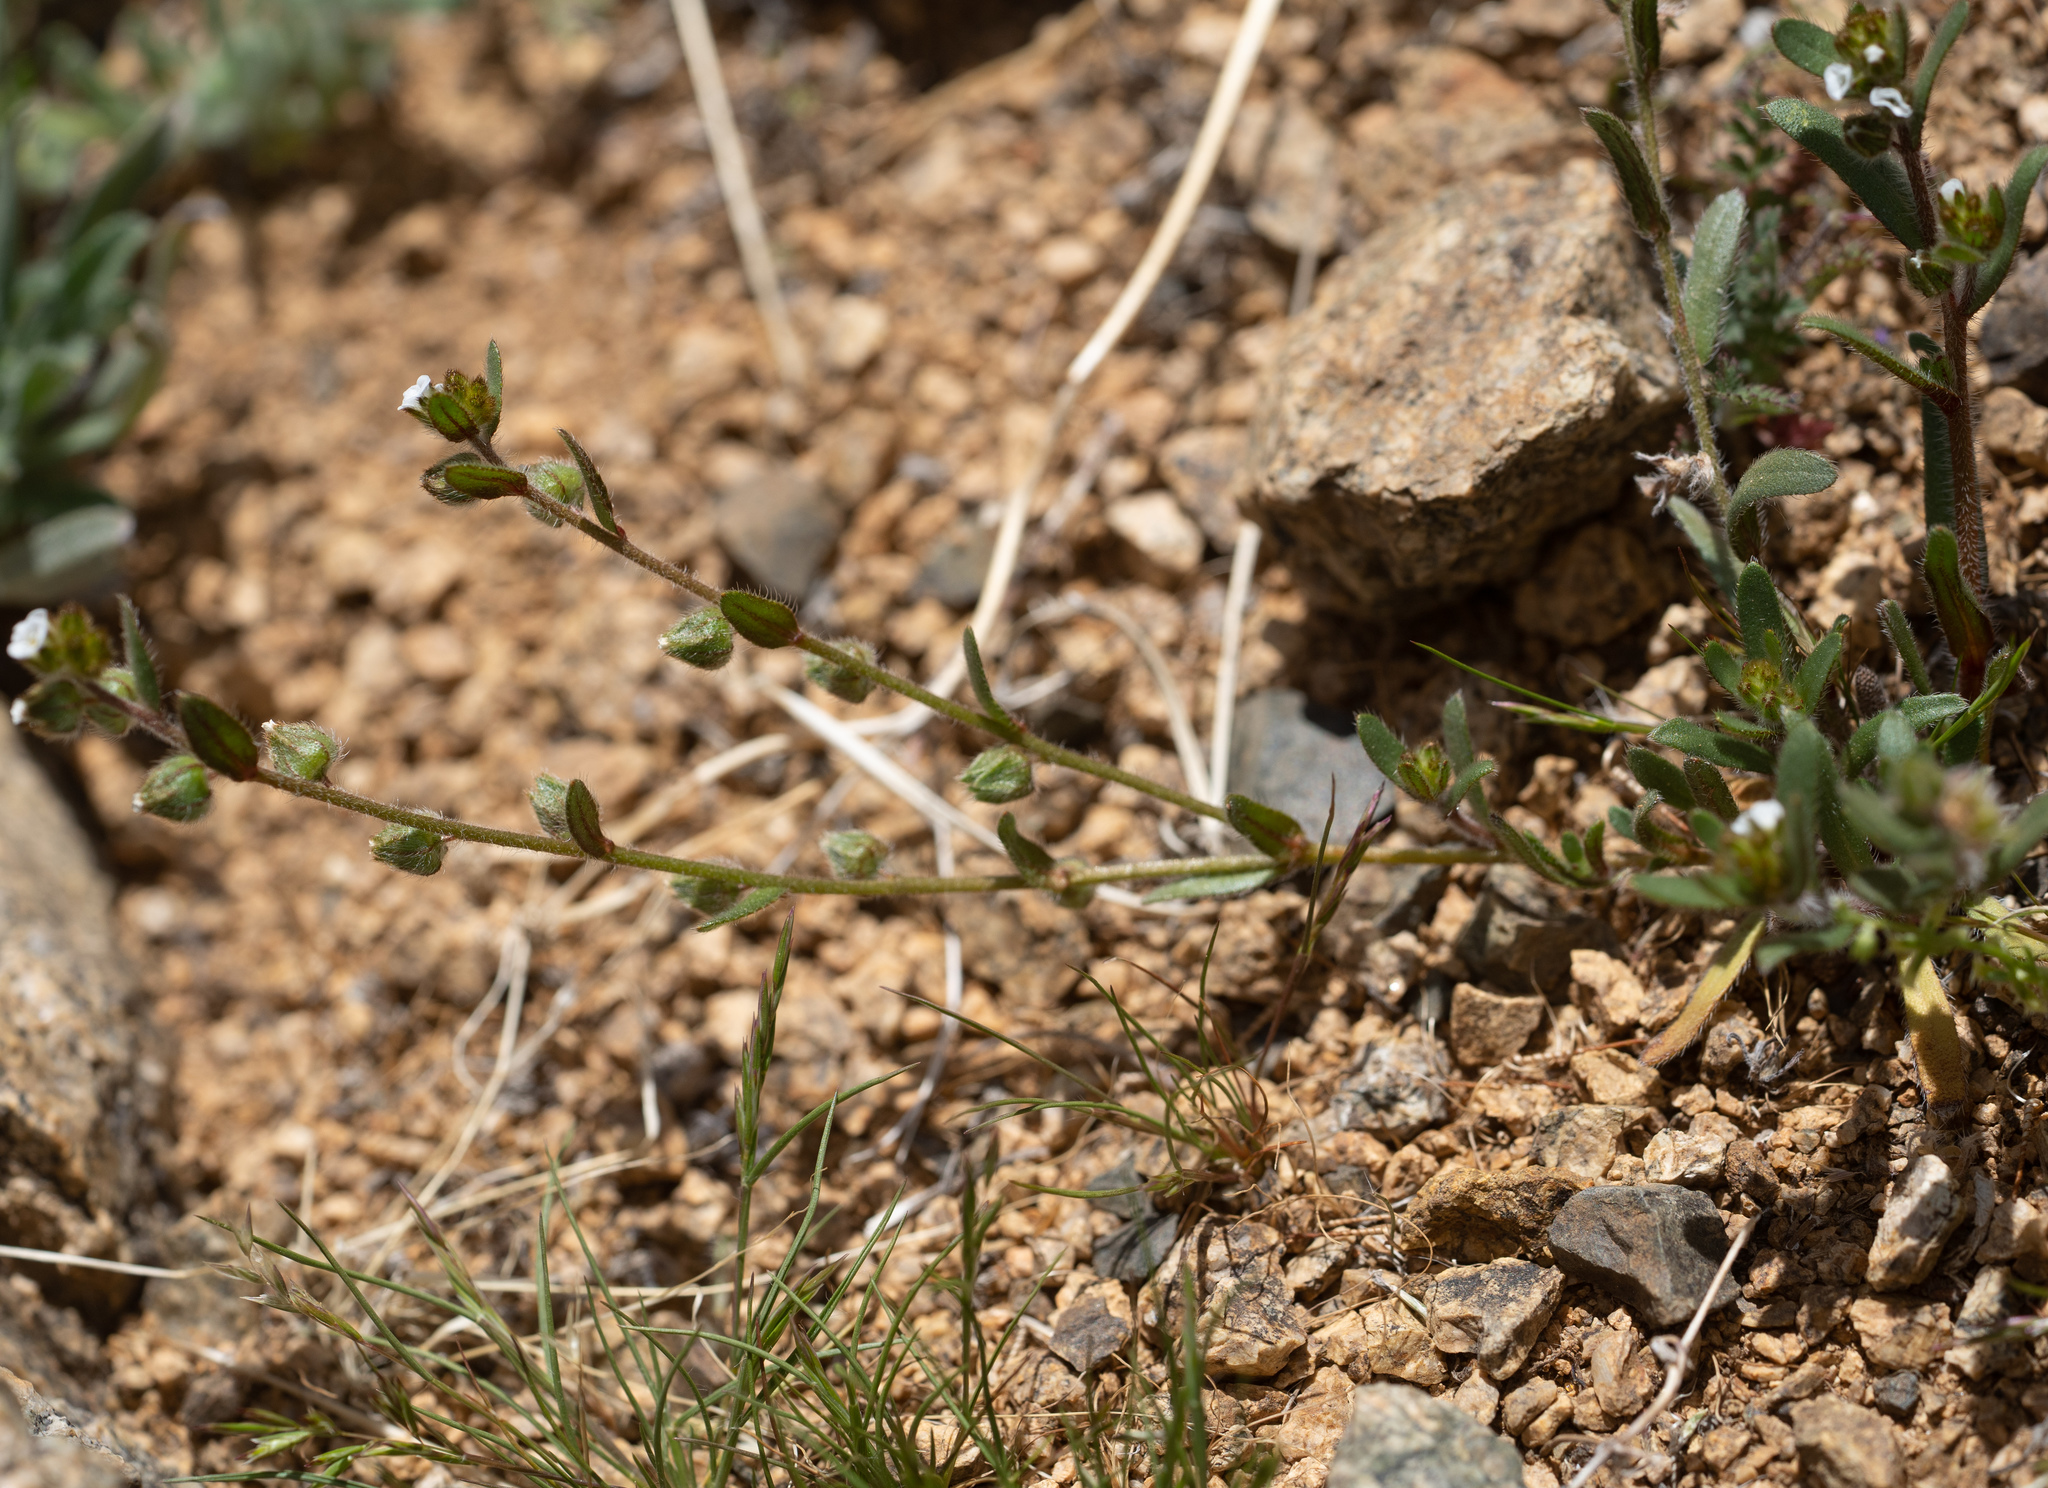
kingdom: Plantae
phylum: Tracheophyta
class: Magnoliopsida
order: Boraginales
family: Boraginaceae
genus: Plagiobothrys
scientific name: Plagiobothrys arizonicus
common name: Arizona popcorn-flower
